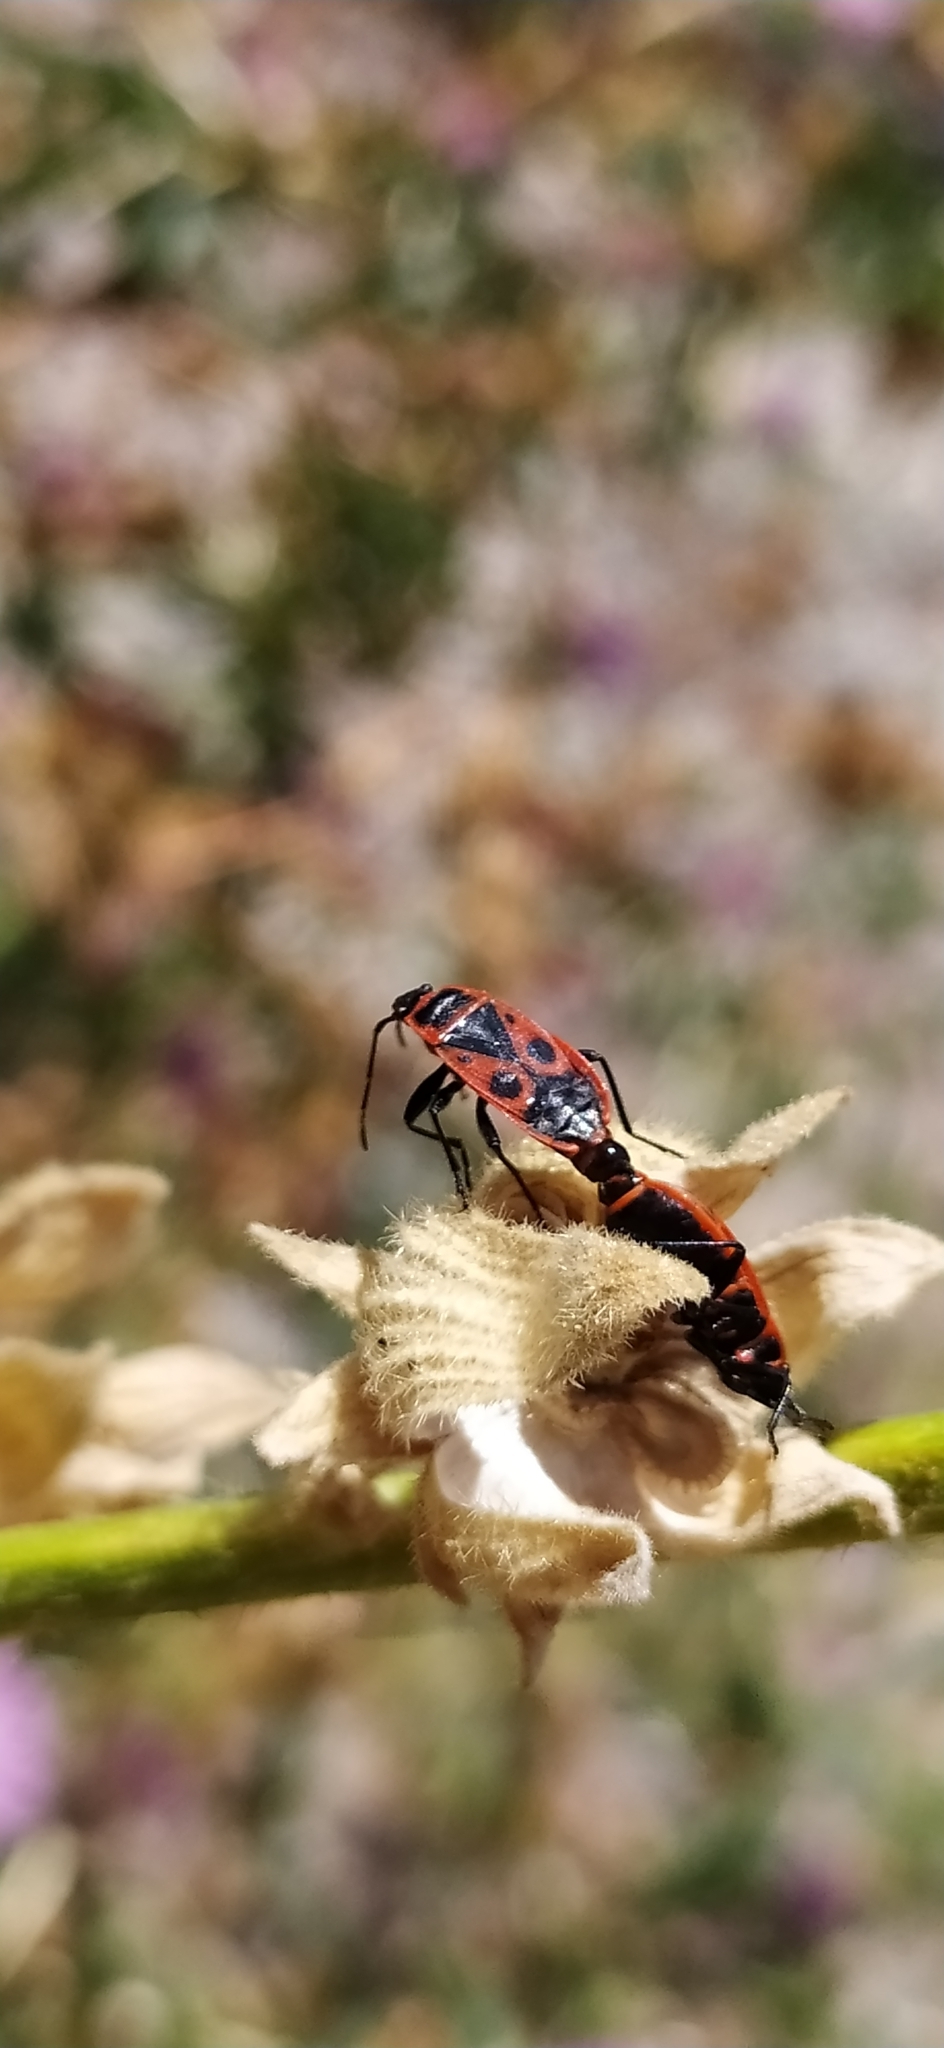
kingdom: Animalia
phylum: Arthropoda
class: Insecta
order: Hemiptera
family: Pyrrhocoridae
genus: Pyrrhocoris
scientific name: Pyrrhocoris apterus
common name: Firebug
